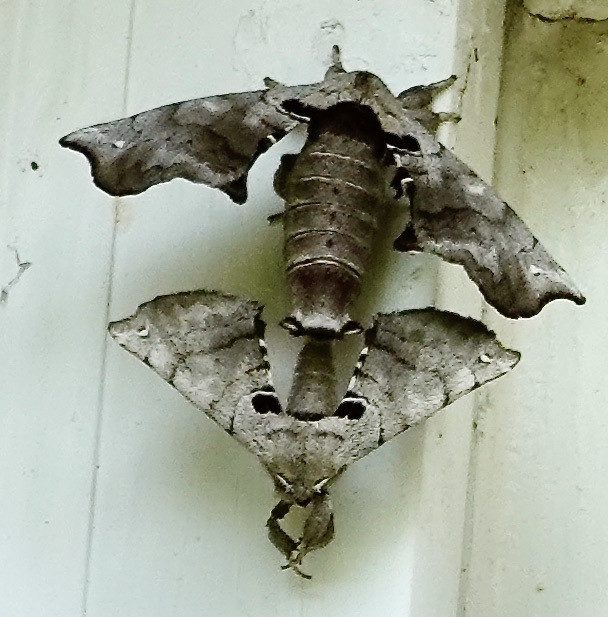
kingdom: Animalia
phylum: Arthropoda
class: Insecta
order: Lepidoptera
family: Apatelodidae
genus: Hygrochroa
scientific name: Hygrochroa Apatelodes torrefacta
